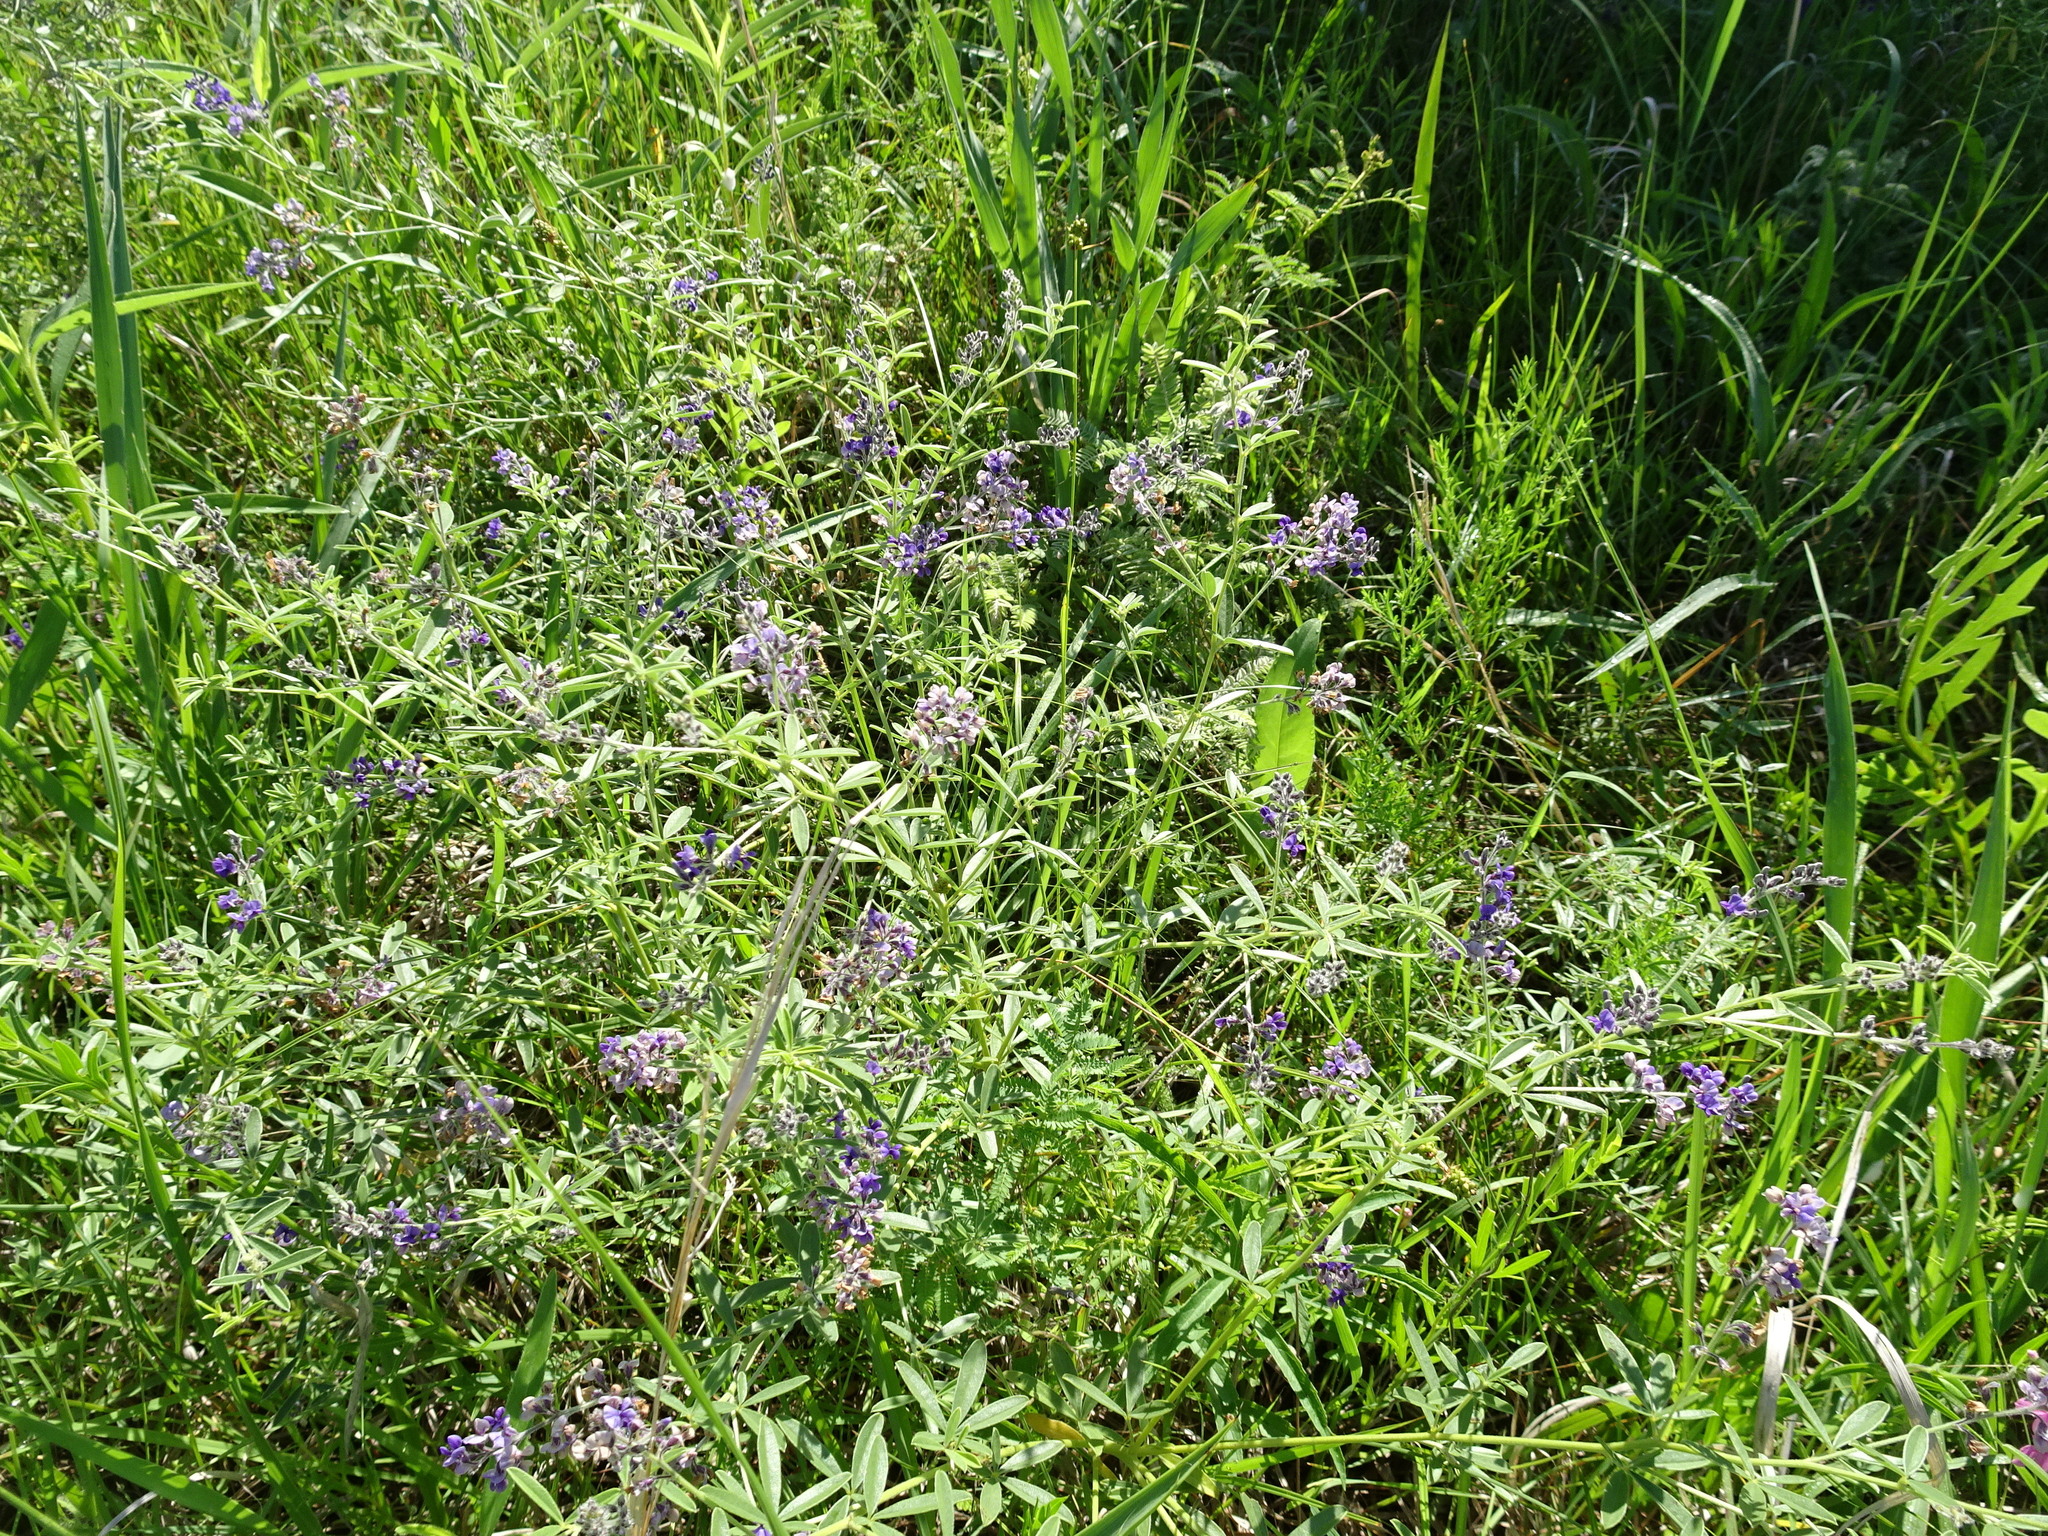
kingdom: Plantae
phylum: Tracheophyta
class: Magnoliopsida
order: Fabales
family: Fabaceae
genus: Pediomelum
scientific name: Pediomelum tenuiflorum
